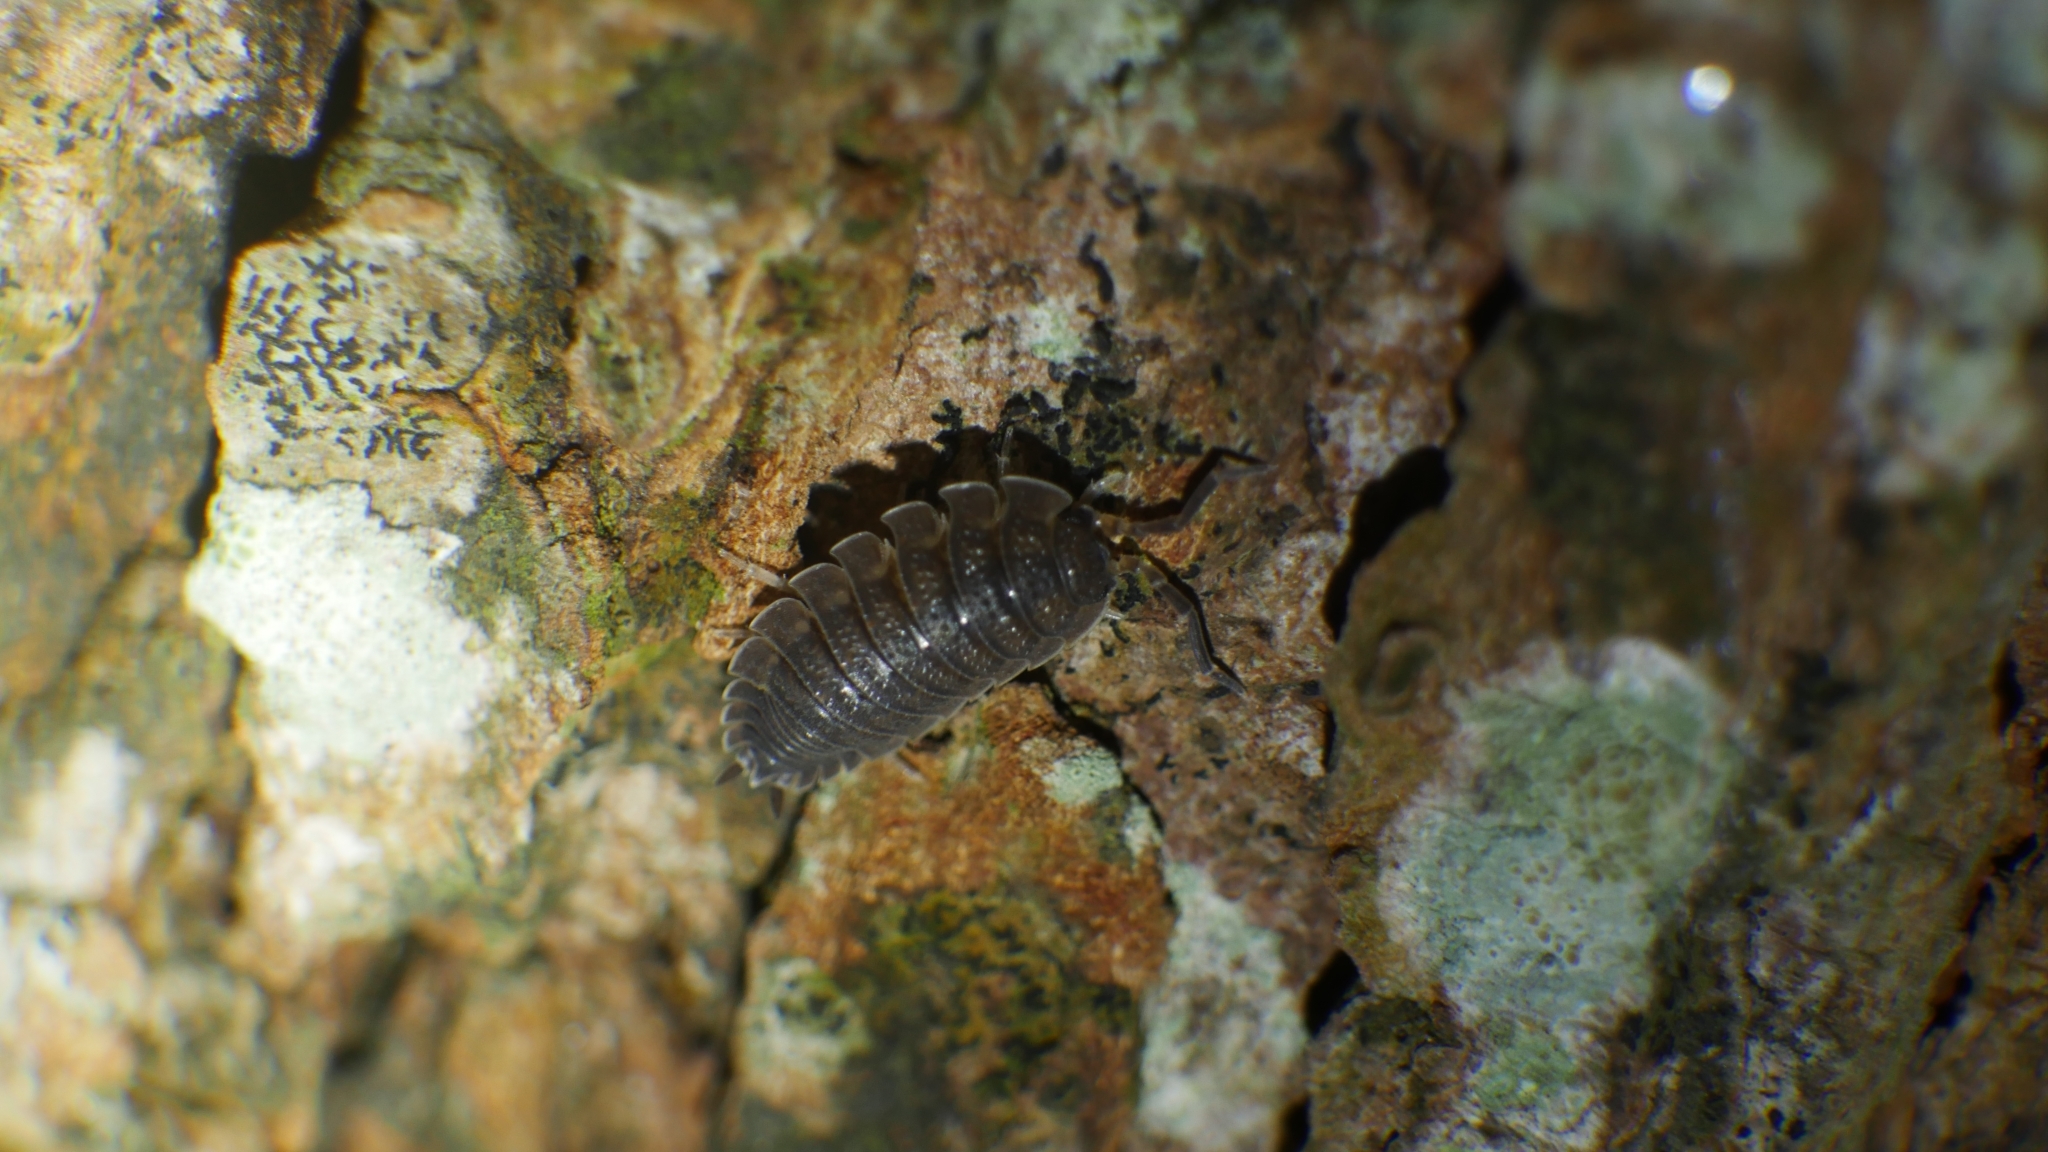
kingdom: Animalia
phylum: Arthropoda
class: Malacostraca
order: Isopoda
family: Porcellionidae
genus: Porcellio
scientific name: Porcellio scaber
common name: Common rough woodlouse
